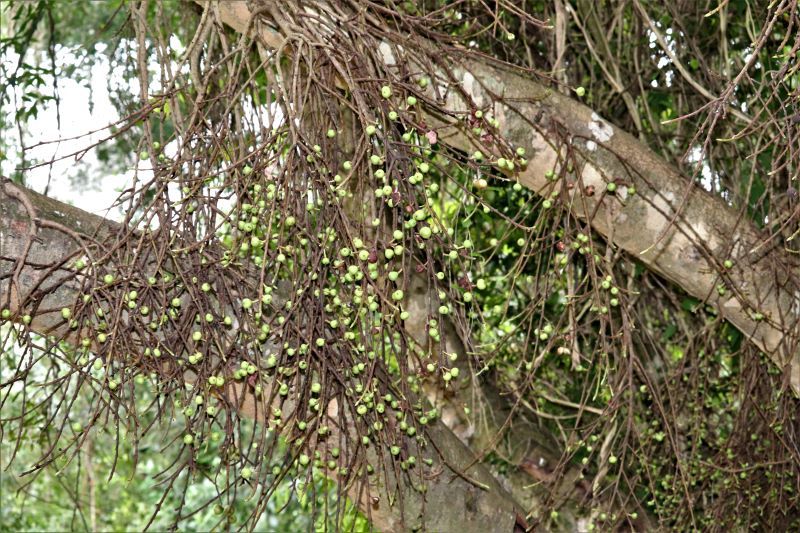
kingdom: Plantae
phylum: Tracheophyta
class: Magnoliopsida
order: Rosales
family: Moraceae
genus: Ficus
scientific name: Ficus sur
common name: Cape fig
